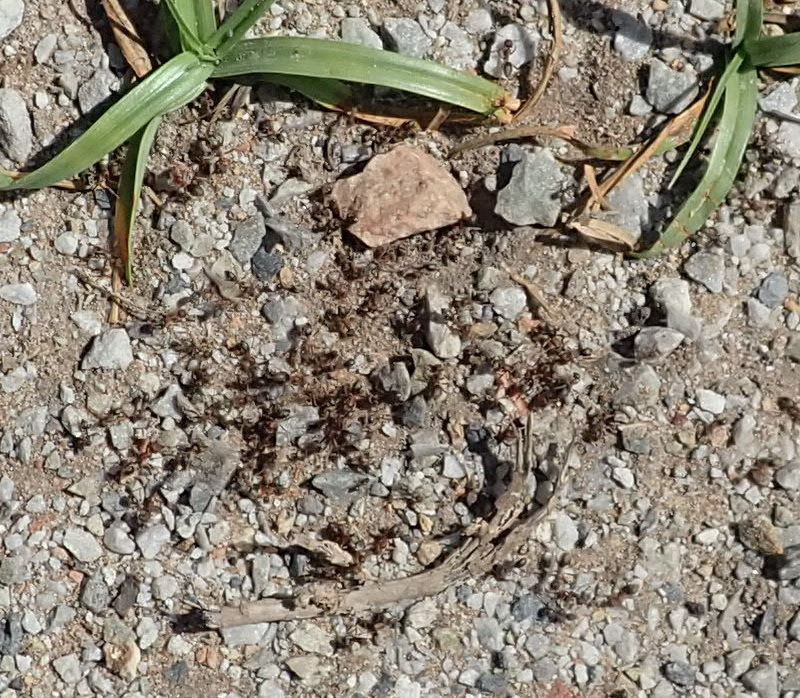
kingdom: Animalia
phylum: Arthropoda
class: Insecta
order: Hymenoptera
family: Formicidae
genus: Anoplolepis
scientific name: Anoplolepis steingroeveri
